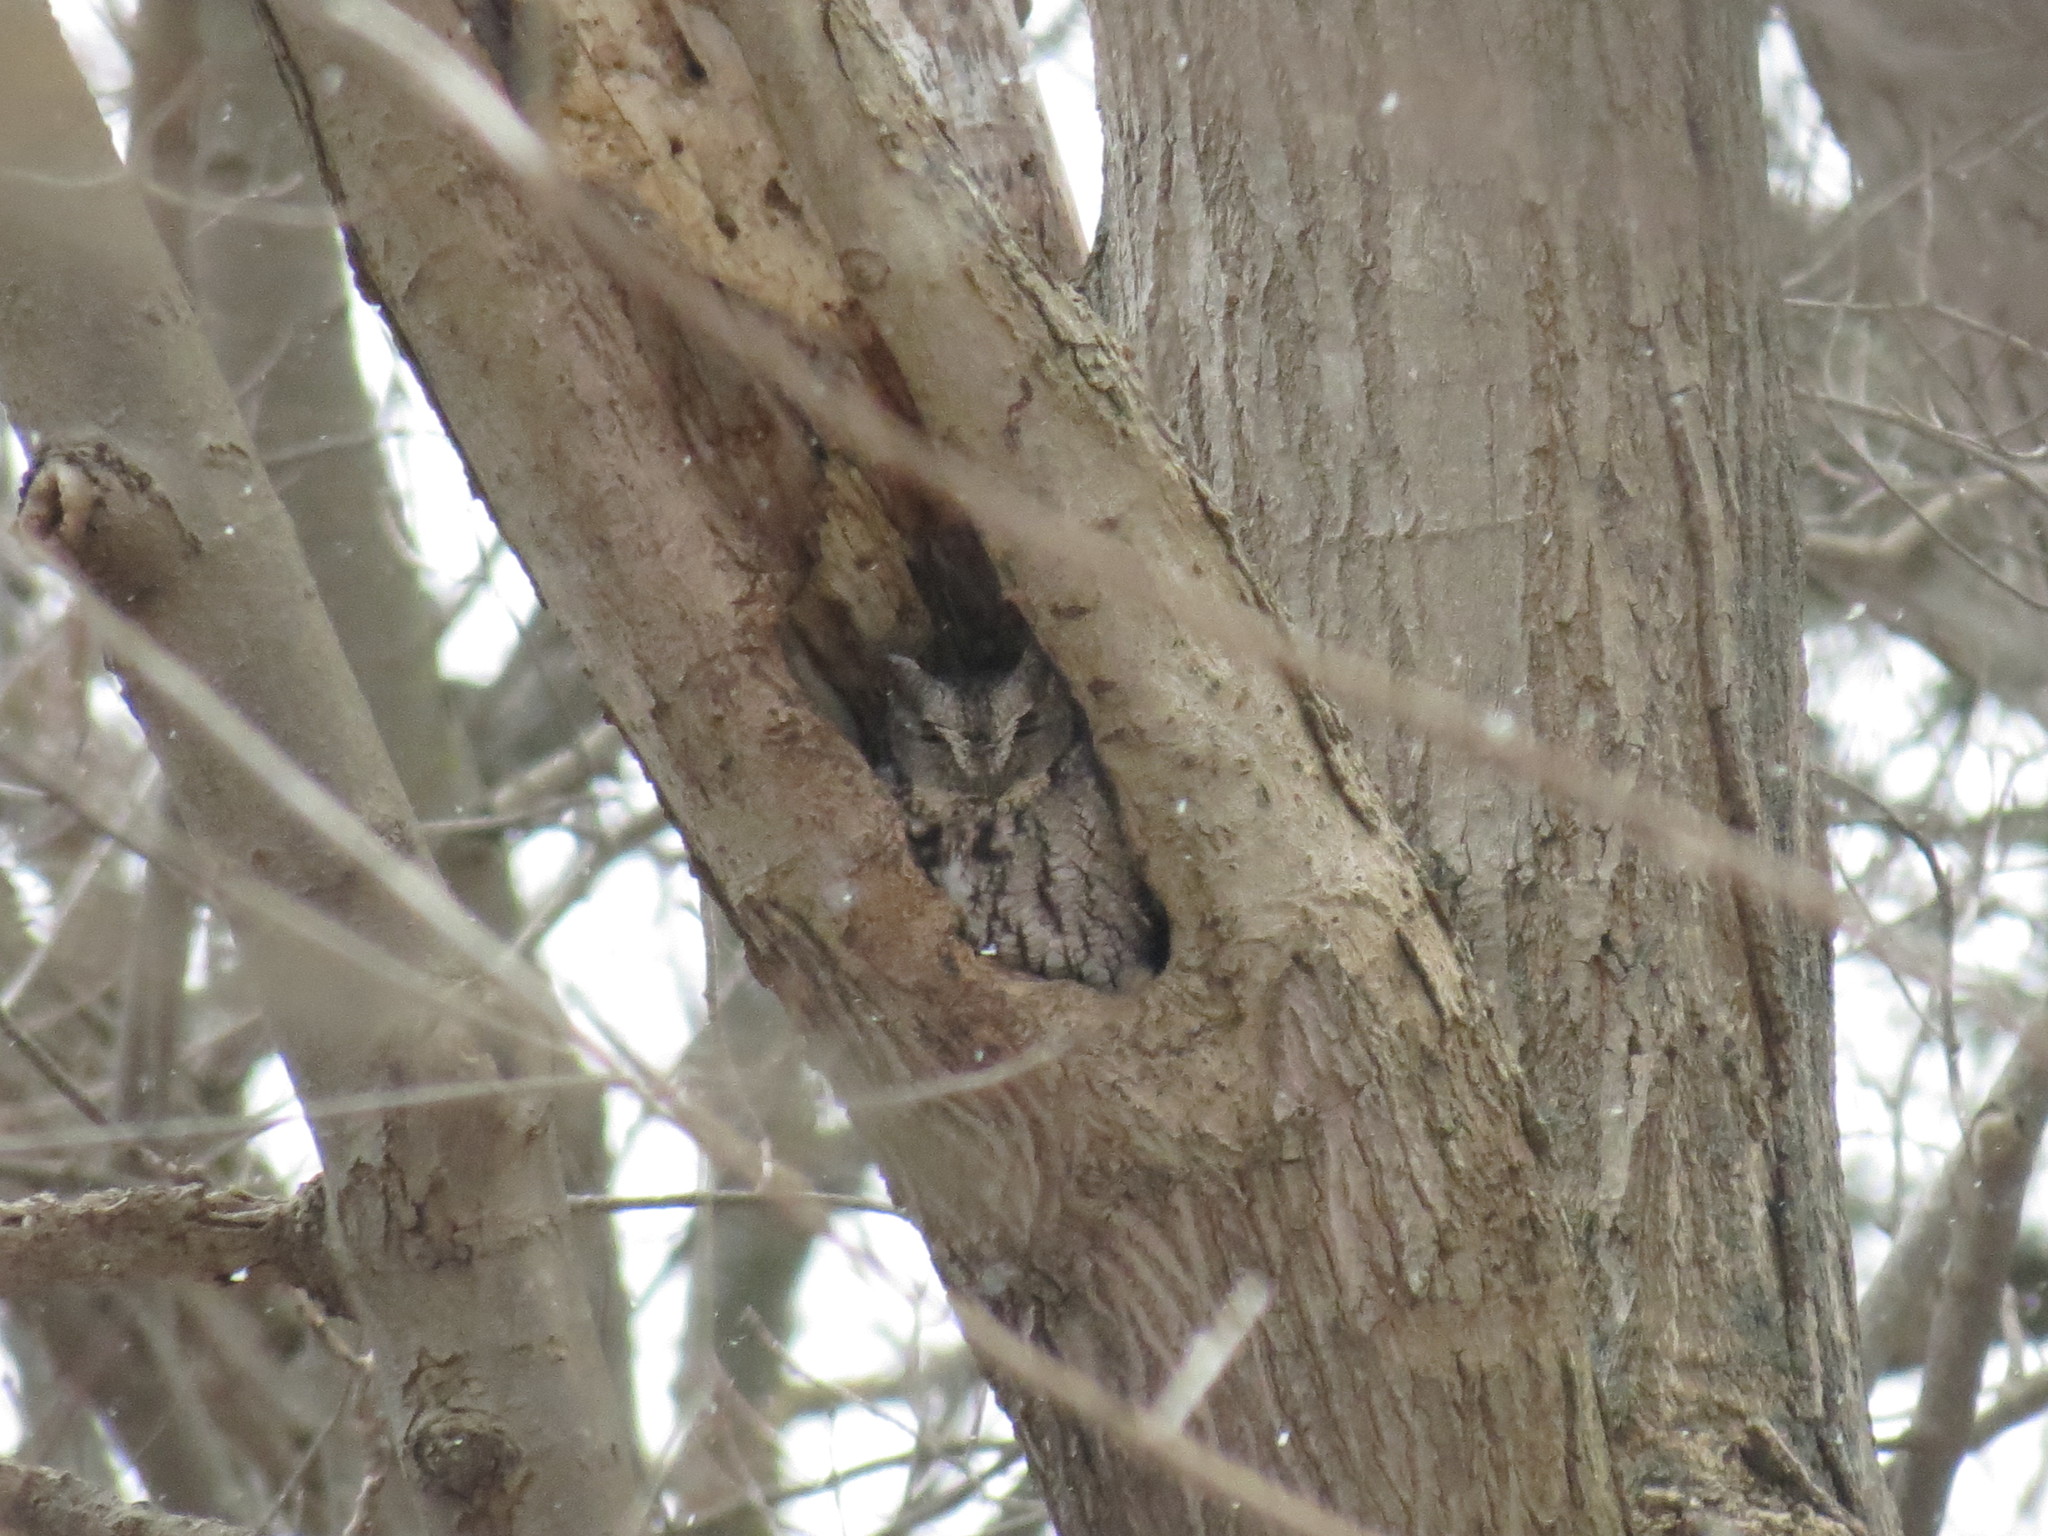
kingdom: Animalia
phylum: Chordata
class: Aves
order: Strigiformes
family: Strigidae
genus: Megascops
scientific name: Megascops asio
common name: Eastern screech-owl
